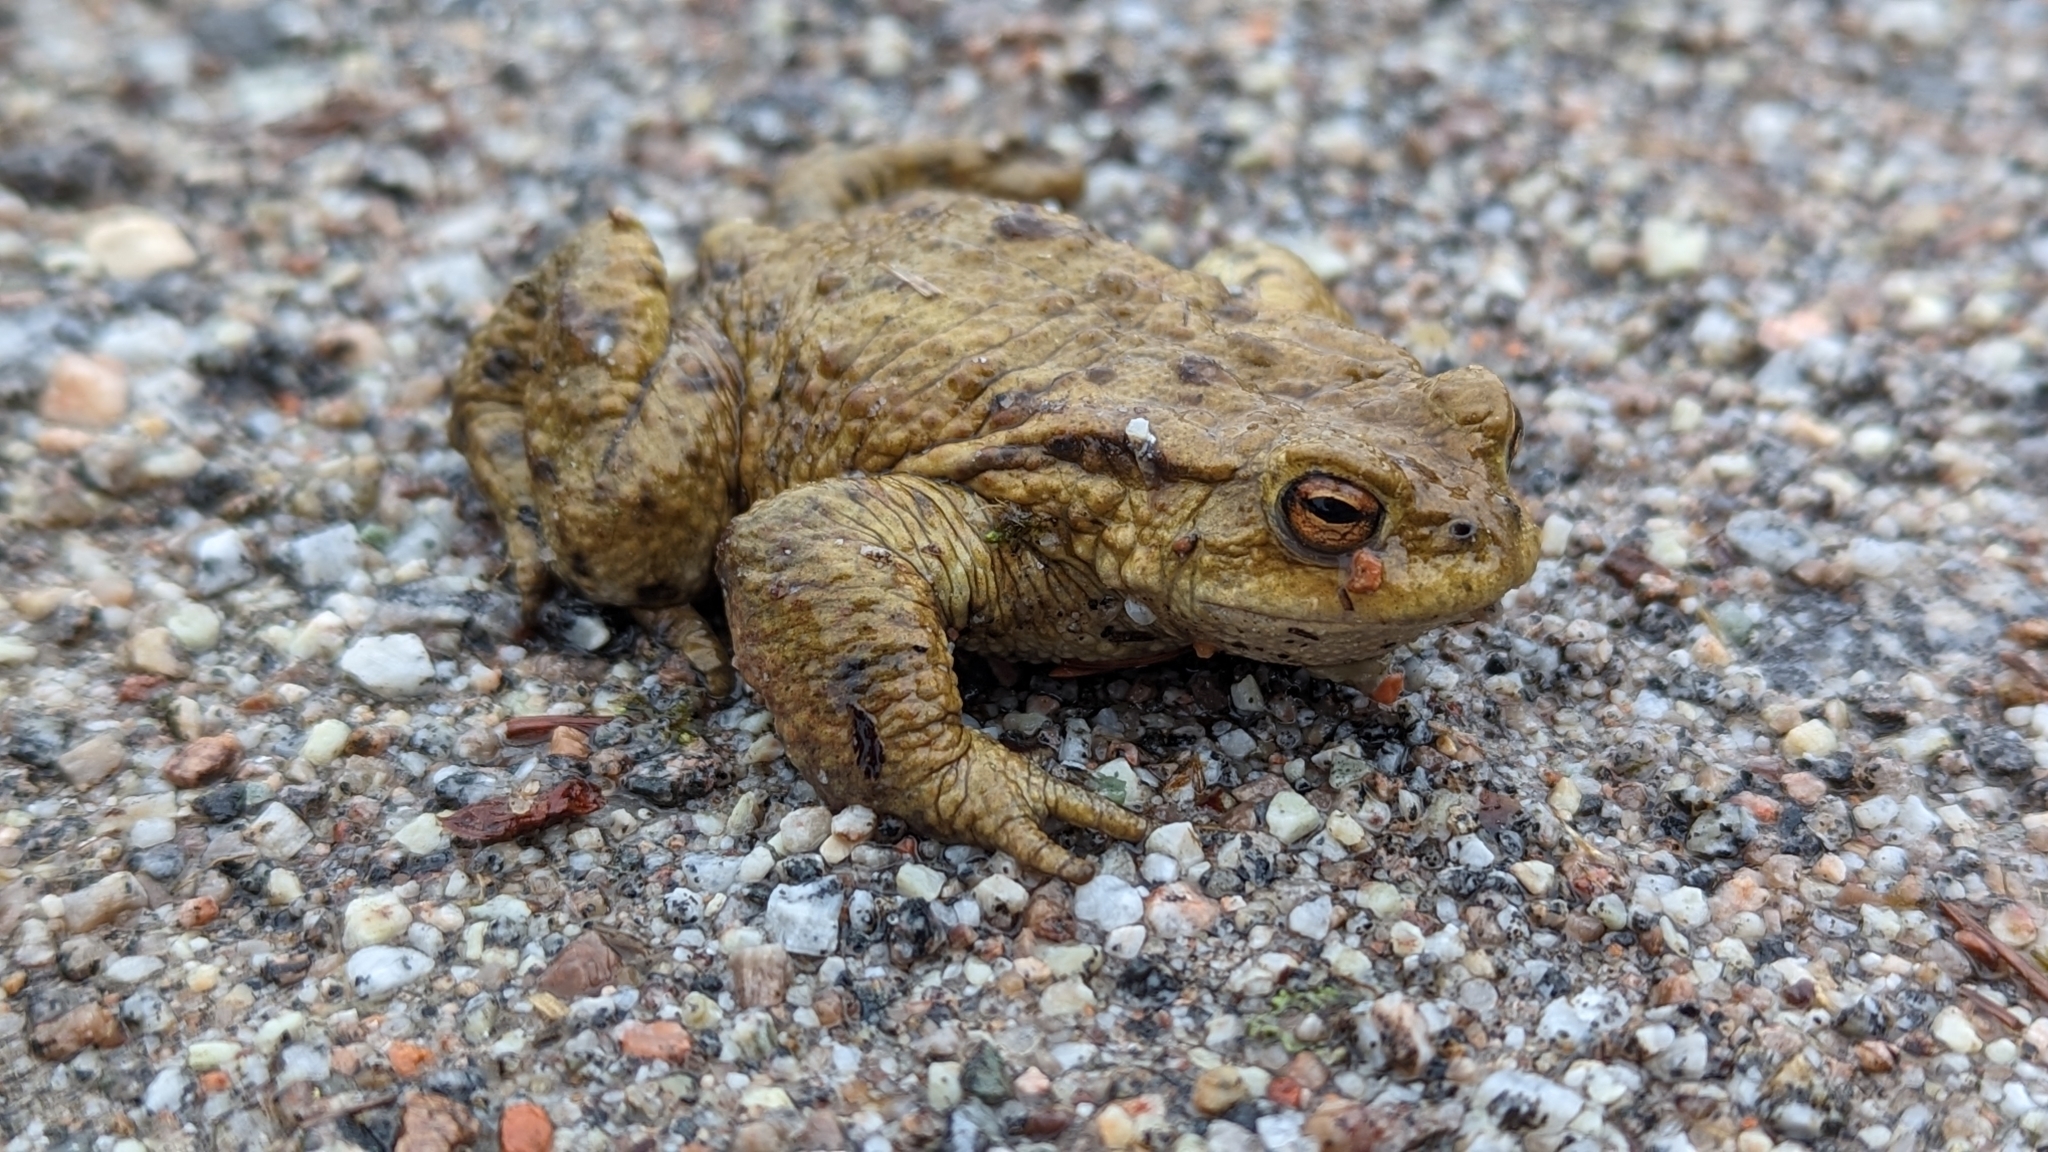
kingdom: Animalia
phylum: Chordata
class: Amphibia
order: Anura
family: Bufonidae
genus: Bufo
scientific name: Bufo bufo
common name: Common toad
